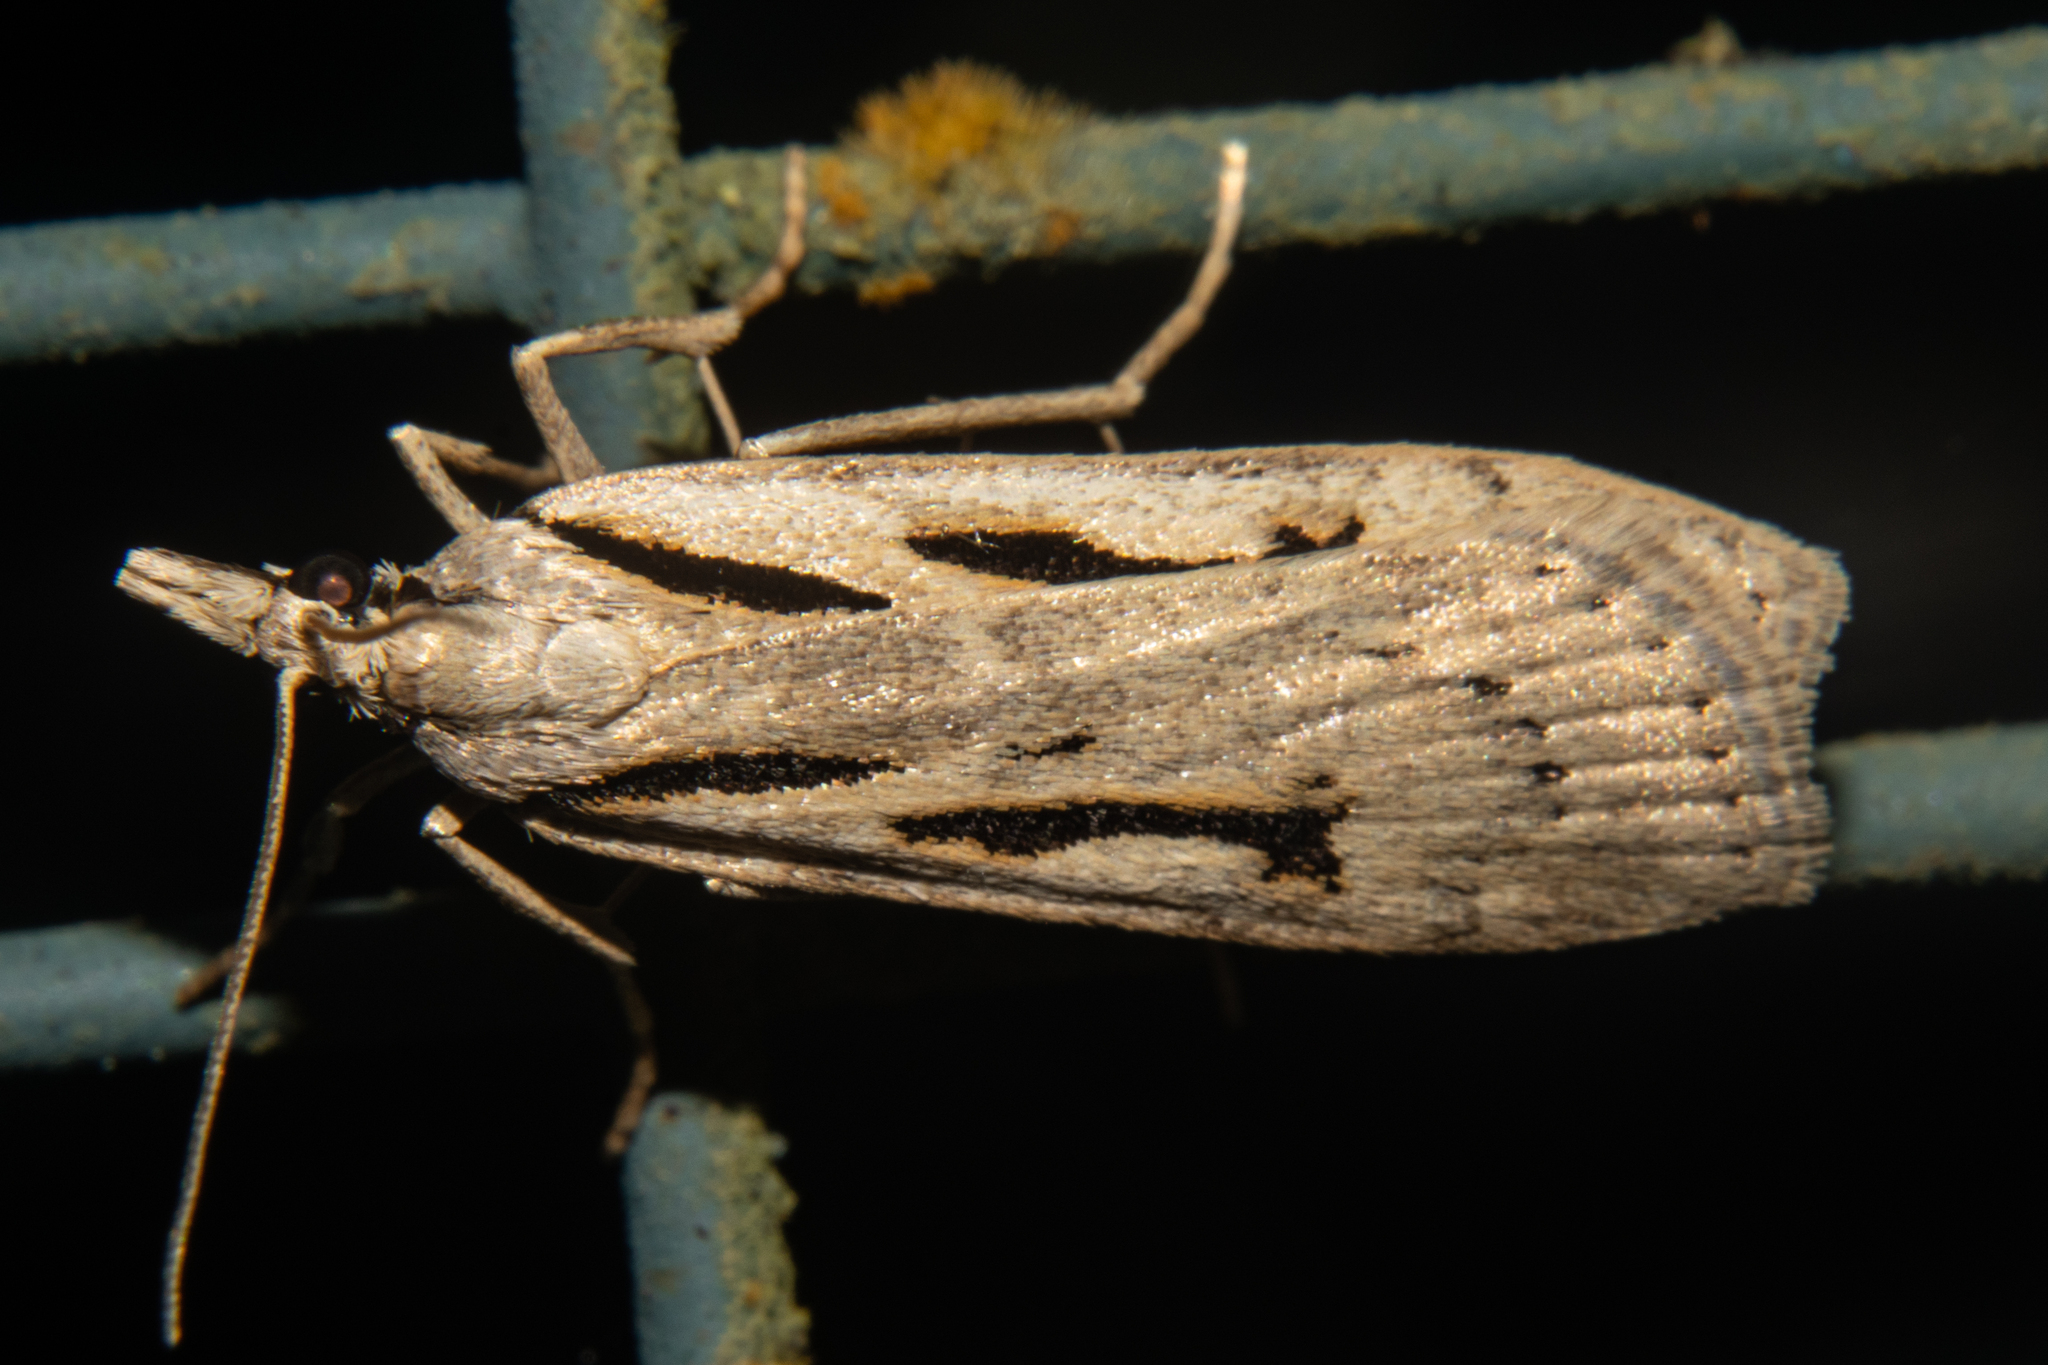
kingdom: Animalia
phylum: Arthropoda
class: Insecta
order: Lepidoptera
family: Crambidae
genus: Scoparia
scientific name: Scoparia rotuellus
